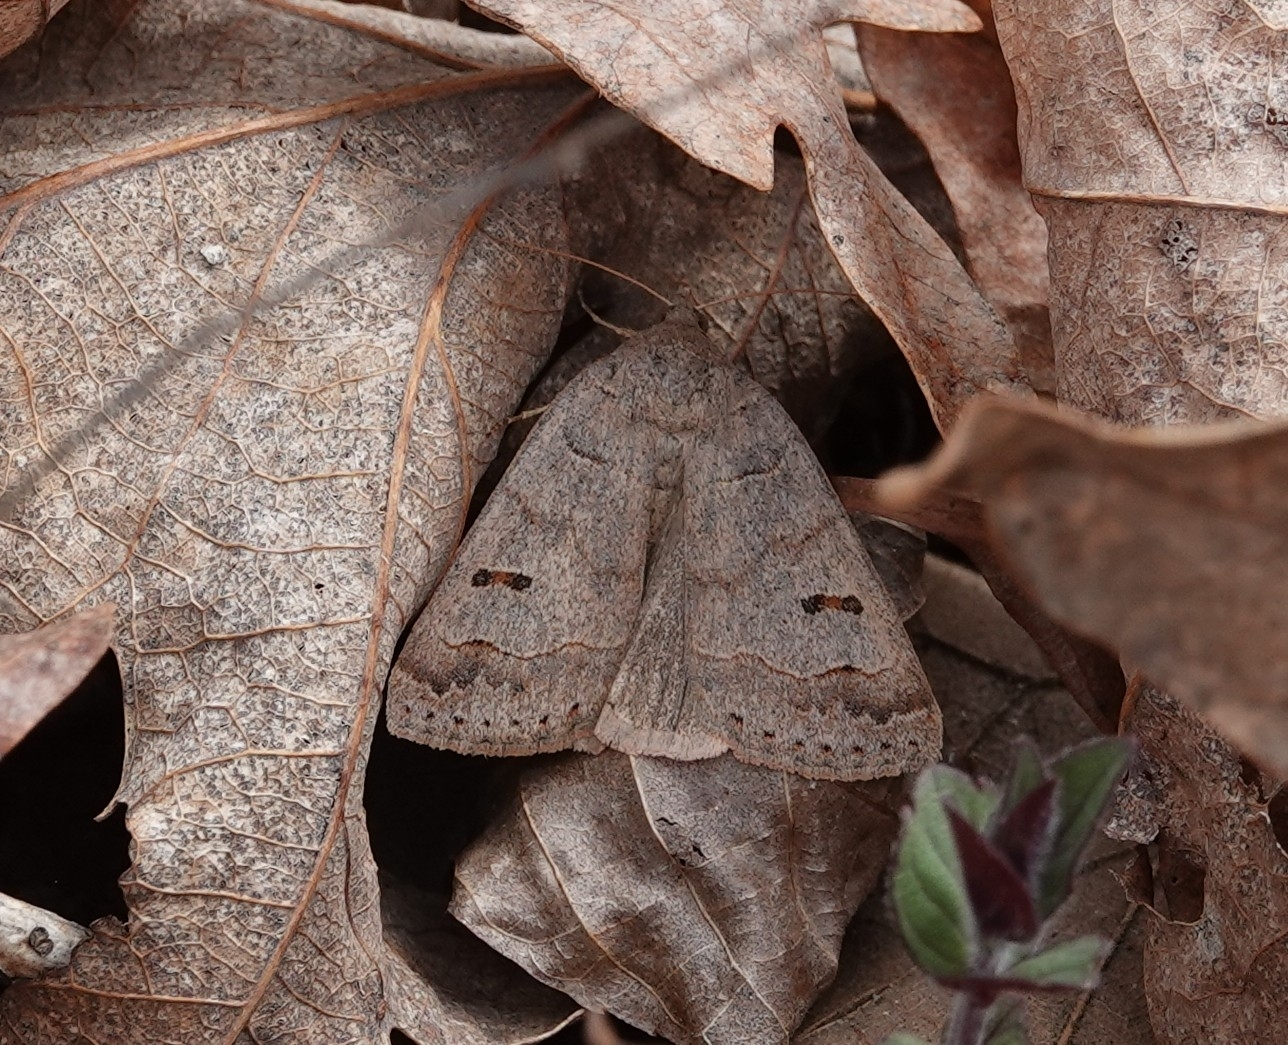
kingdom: Animalia
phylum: Arthropoda
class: Insecta
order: Lepidoptera
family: Erebidae
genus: Phoberia
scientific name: Phoberia atomaris
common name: Common oak moth
